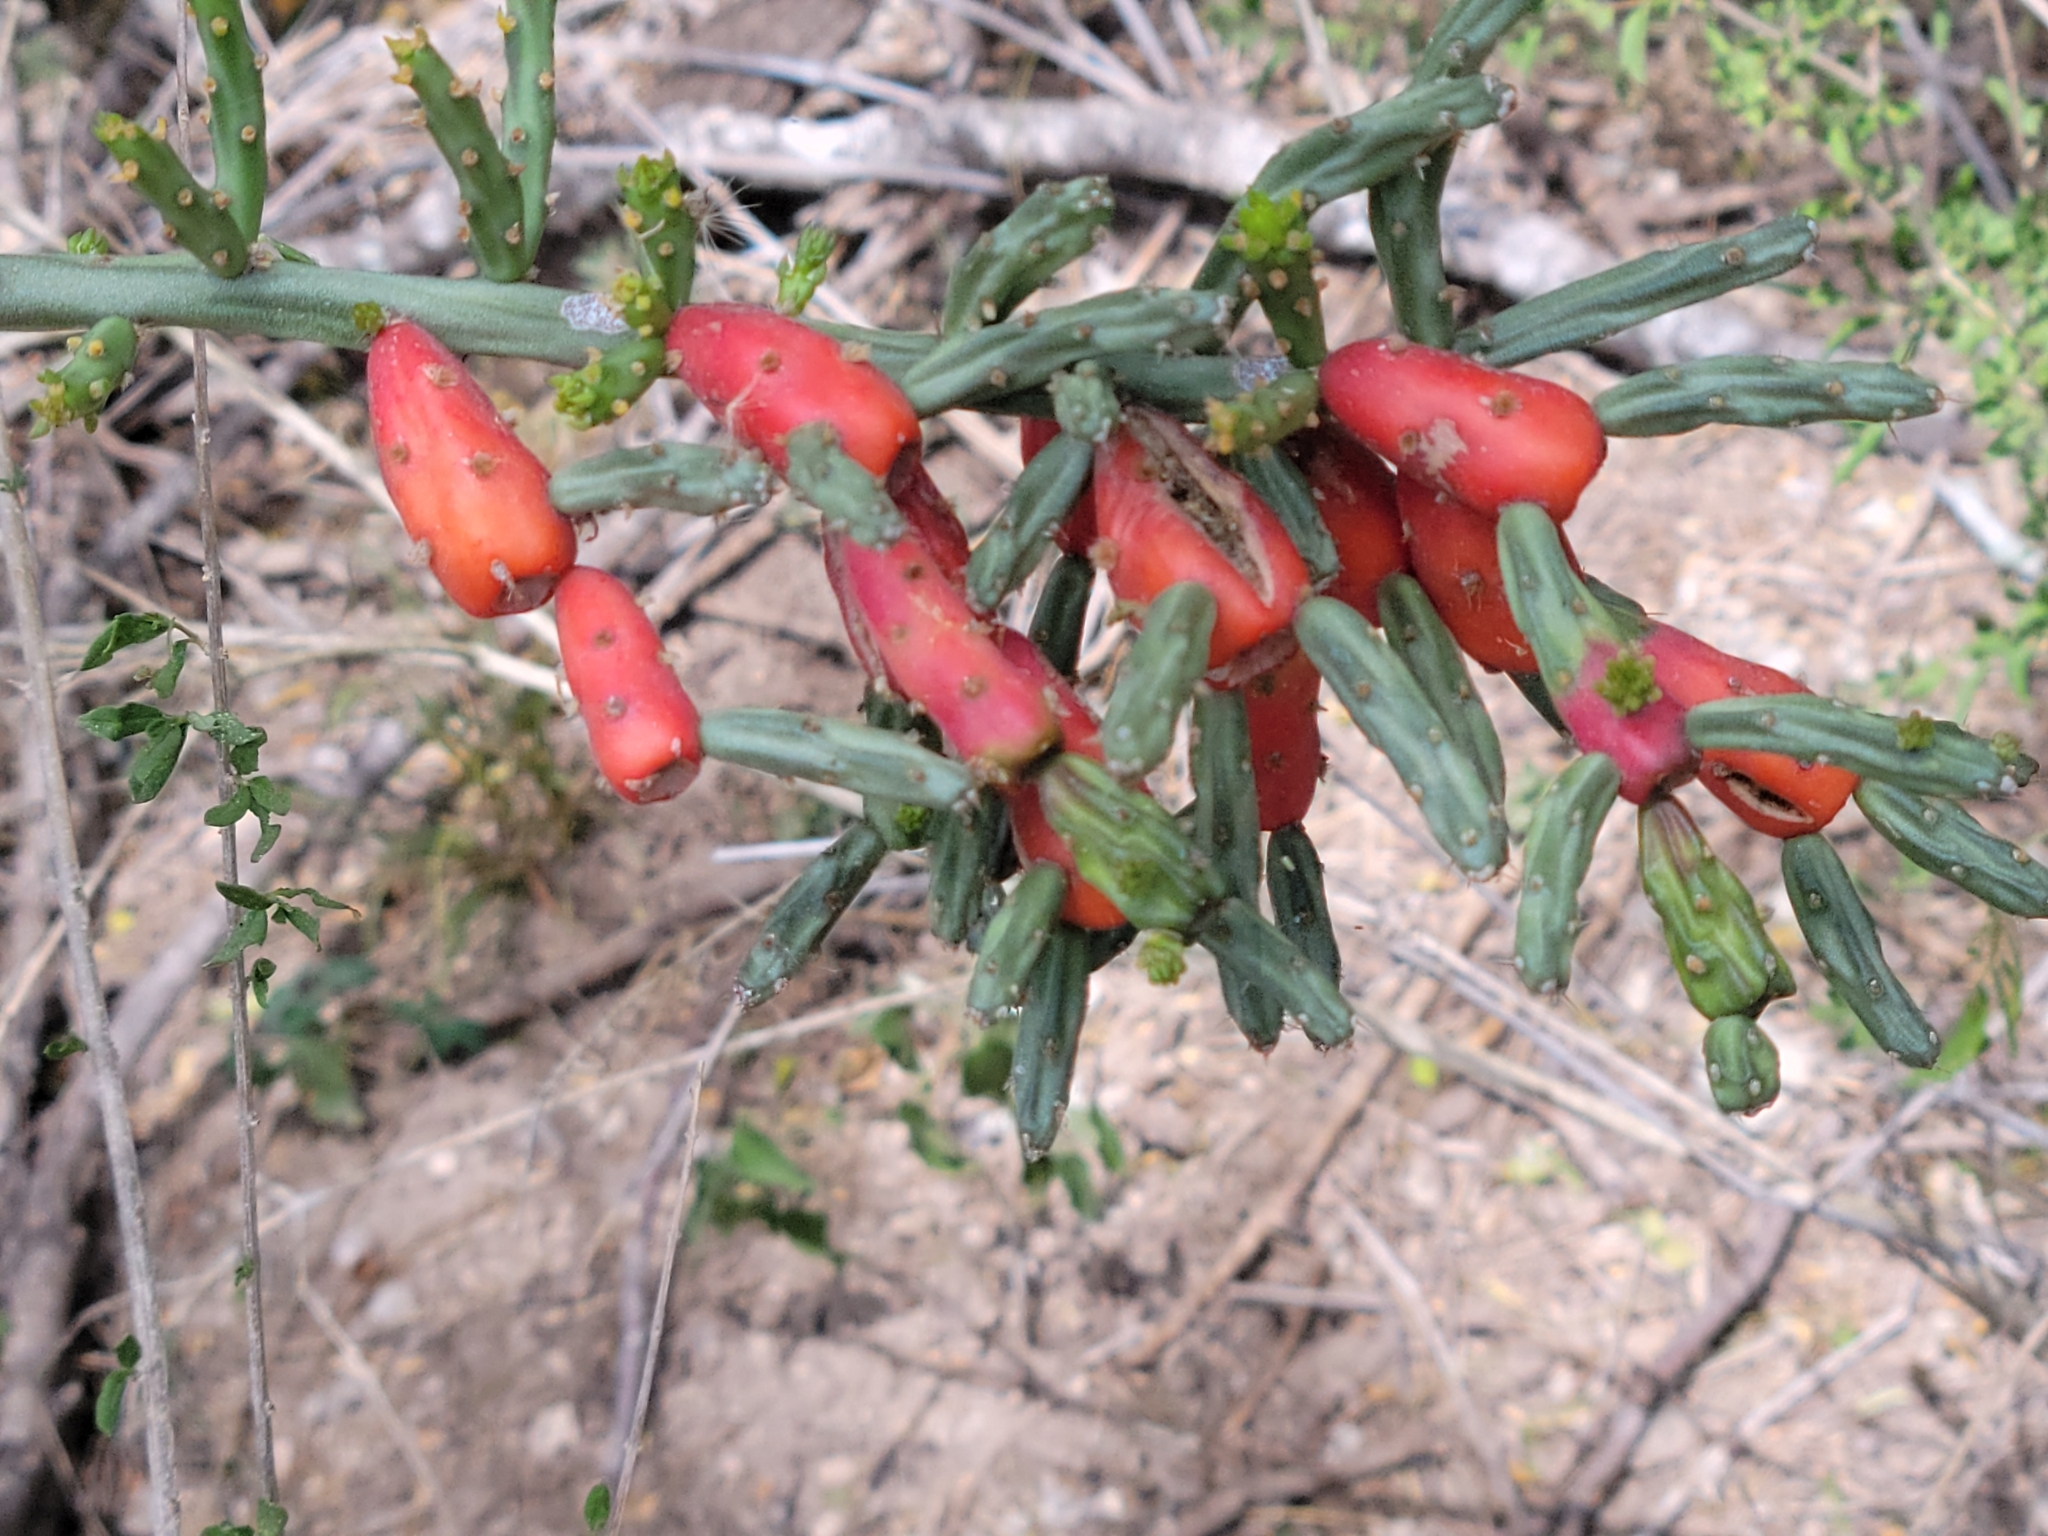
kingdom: Plantae
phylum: Tracheophyta
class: Magnoliopsida
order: Caryophyllales
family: Cactaceae
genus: Cylindropuntia
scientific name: Cylindropuntia leptocaulis
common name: Christmas cactus
